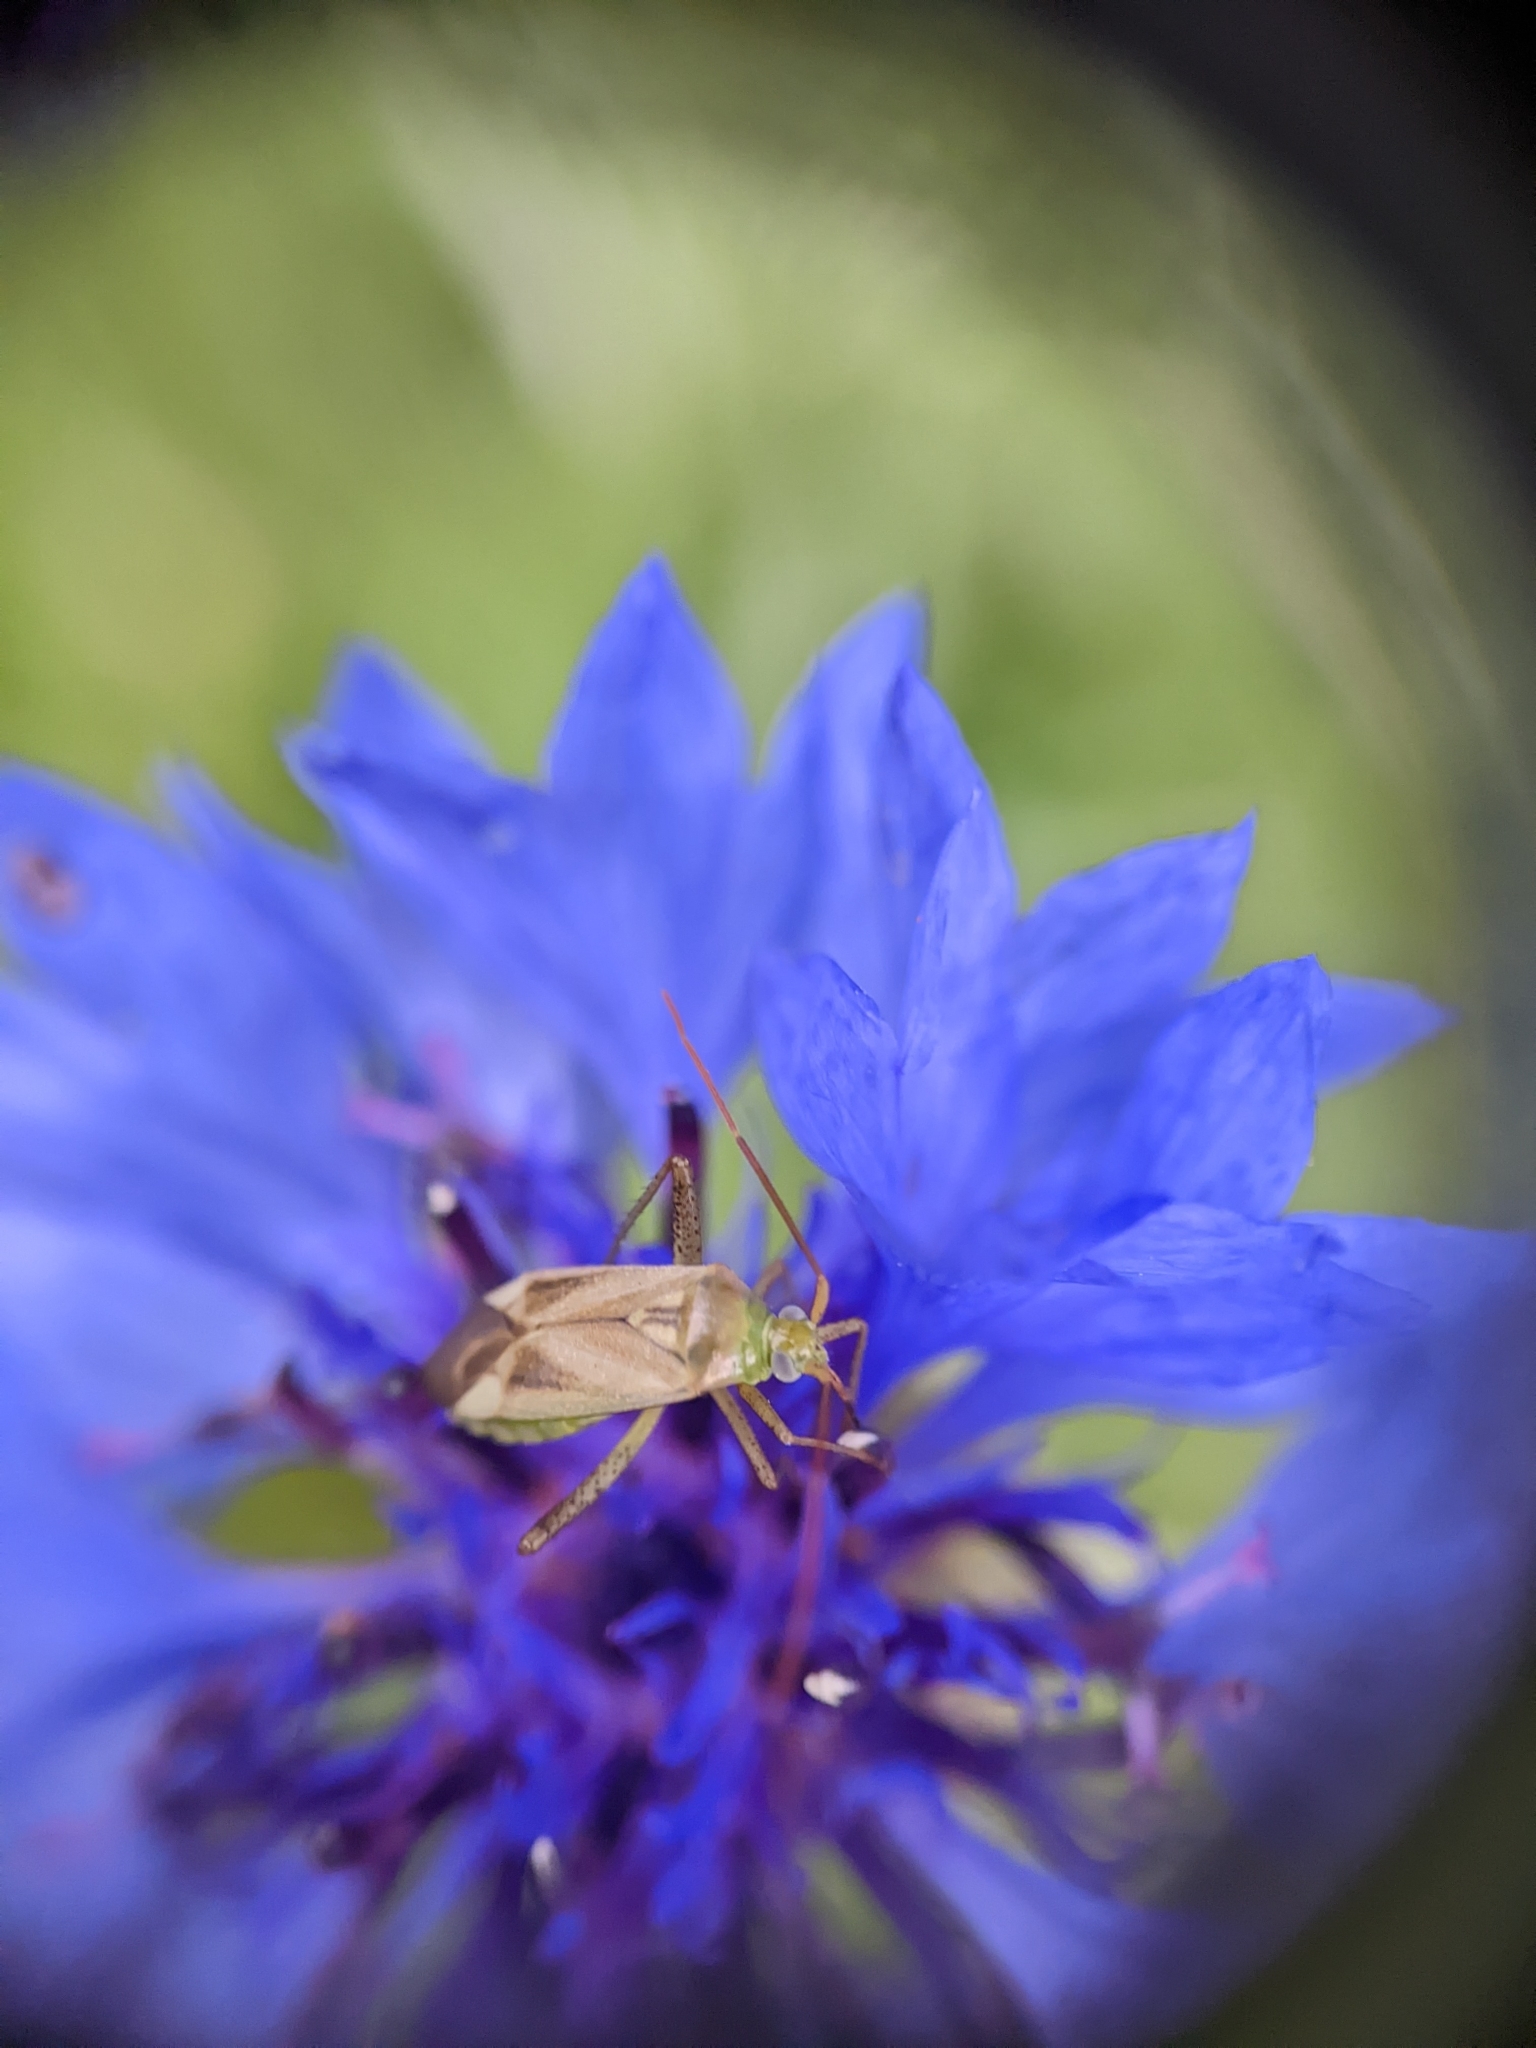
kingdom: Animalia
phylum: Arthropoda
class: Insecta
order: Hemiptera
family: Miridae
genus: Adelphocoris
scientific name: Adelphocoris lineolatus
